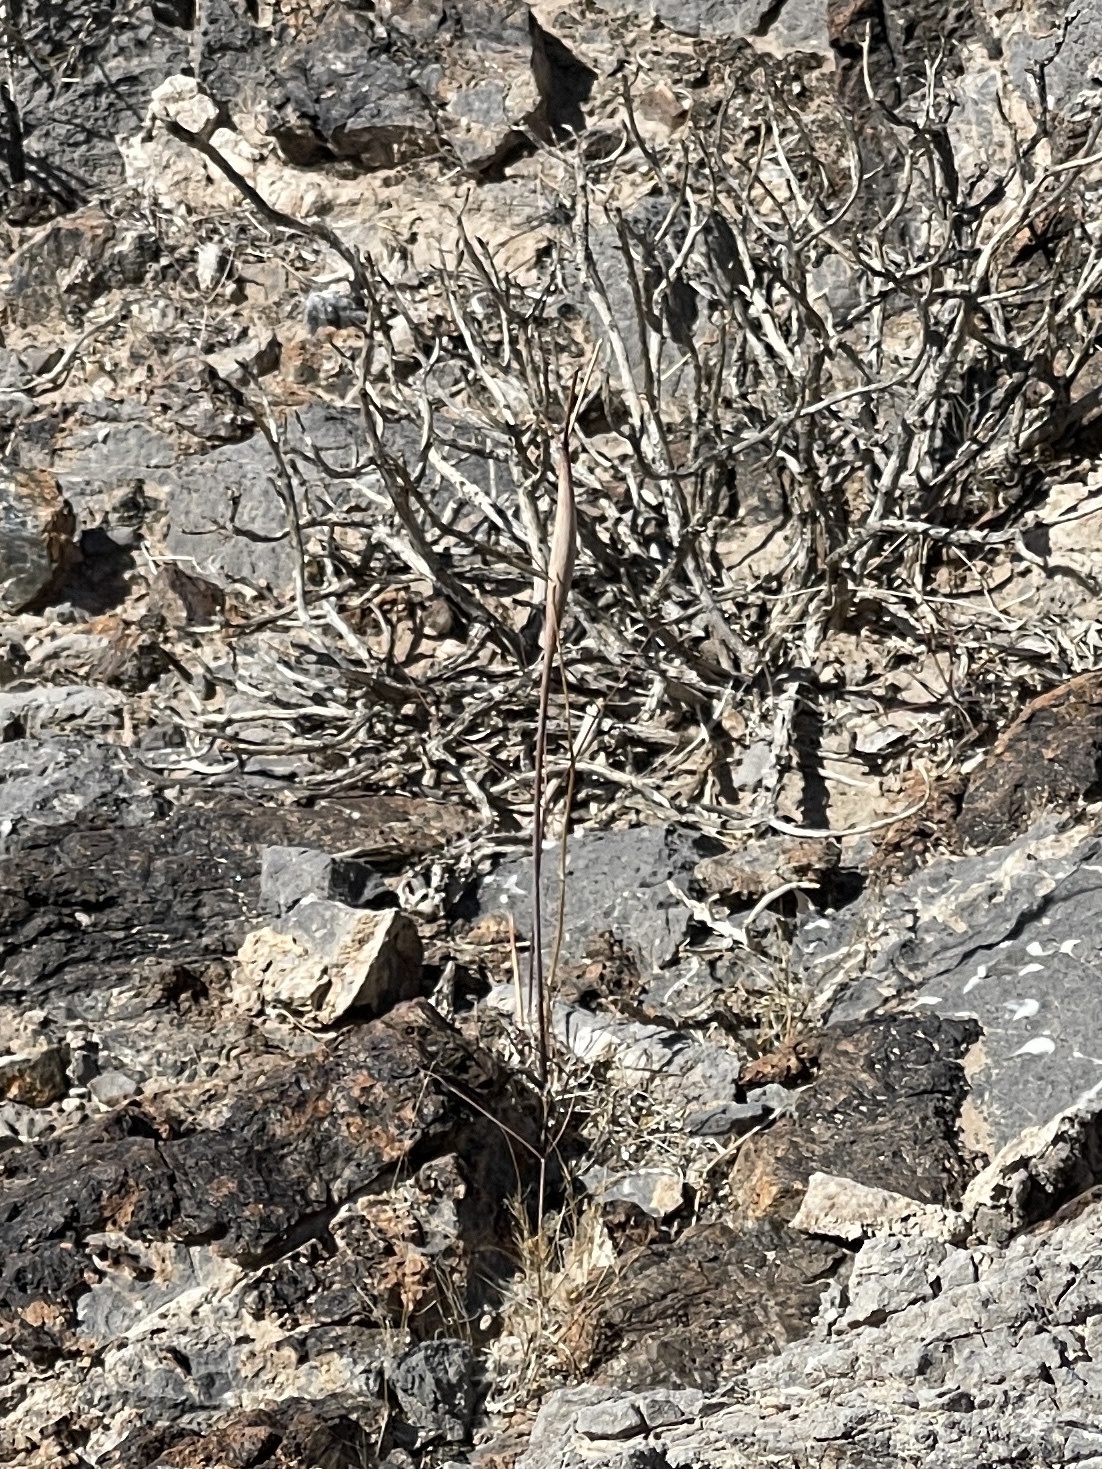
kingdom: Plantae
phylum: Tracheophyta
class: Magnoliopsida
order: Caryophyllales
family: Polygonaceae
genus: Eriogonum
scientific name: Eriogonum inflatum
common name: Desert trumpet
